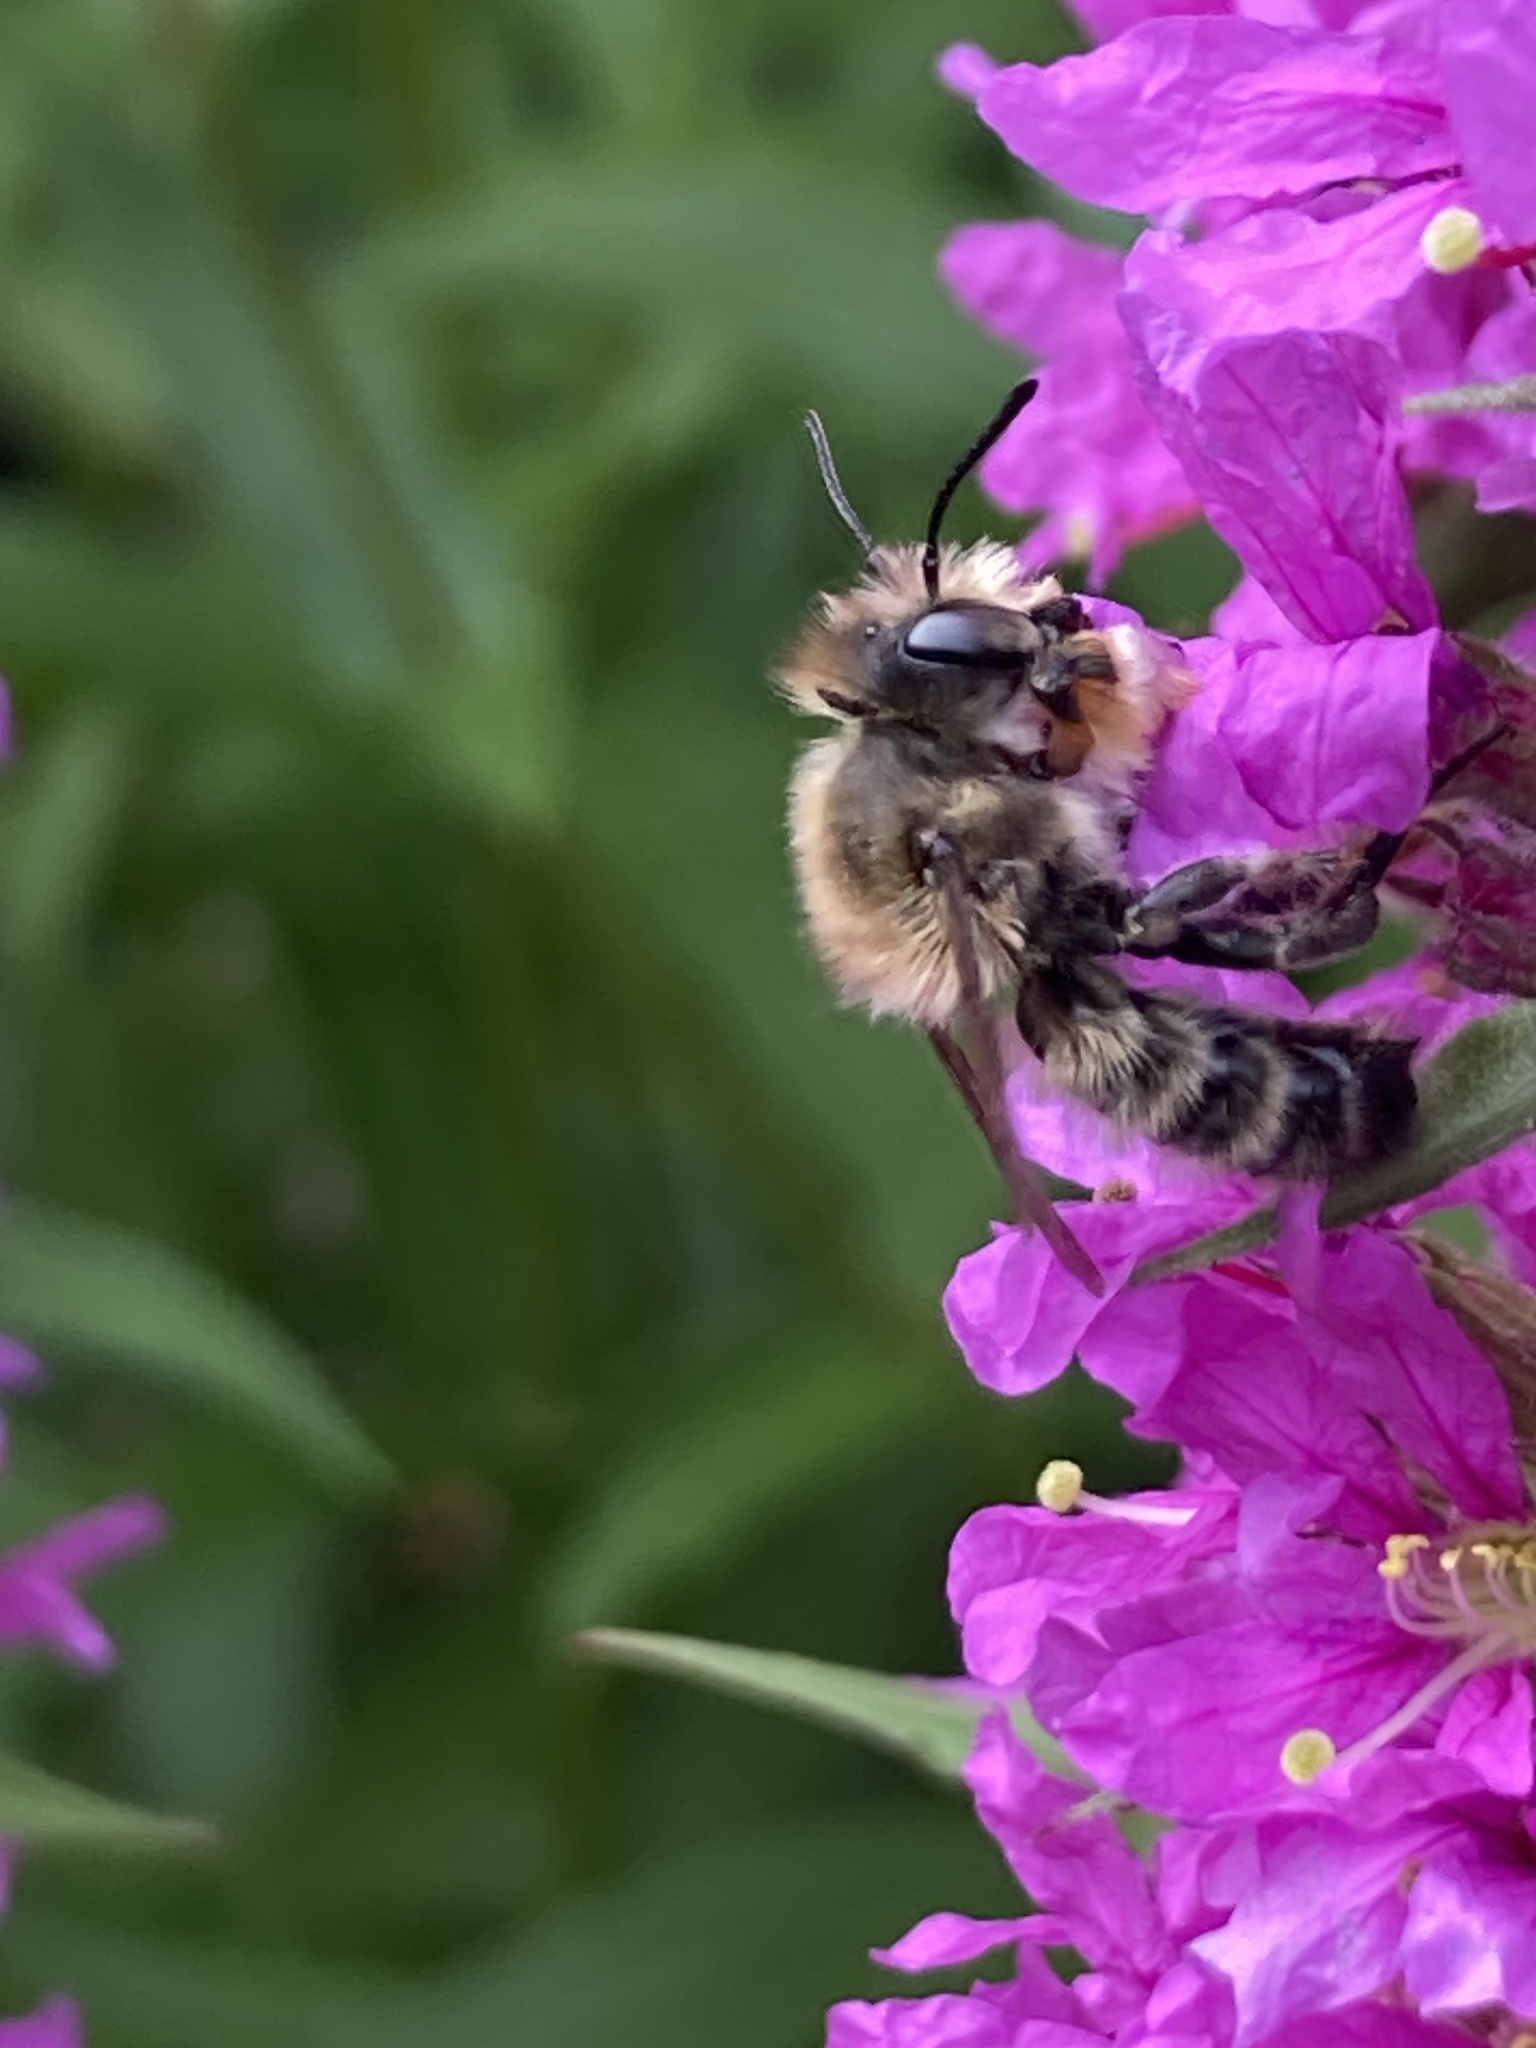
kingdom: Animalia
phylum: Arthropoda
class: Insecta
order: Hymenoptera
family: Megachilidae
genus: Megachile
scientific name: Megachile willughbiella
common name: Willughby's leafcutter bee
